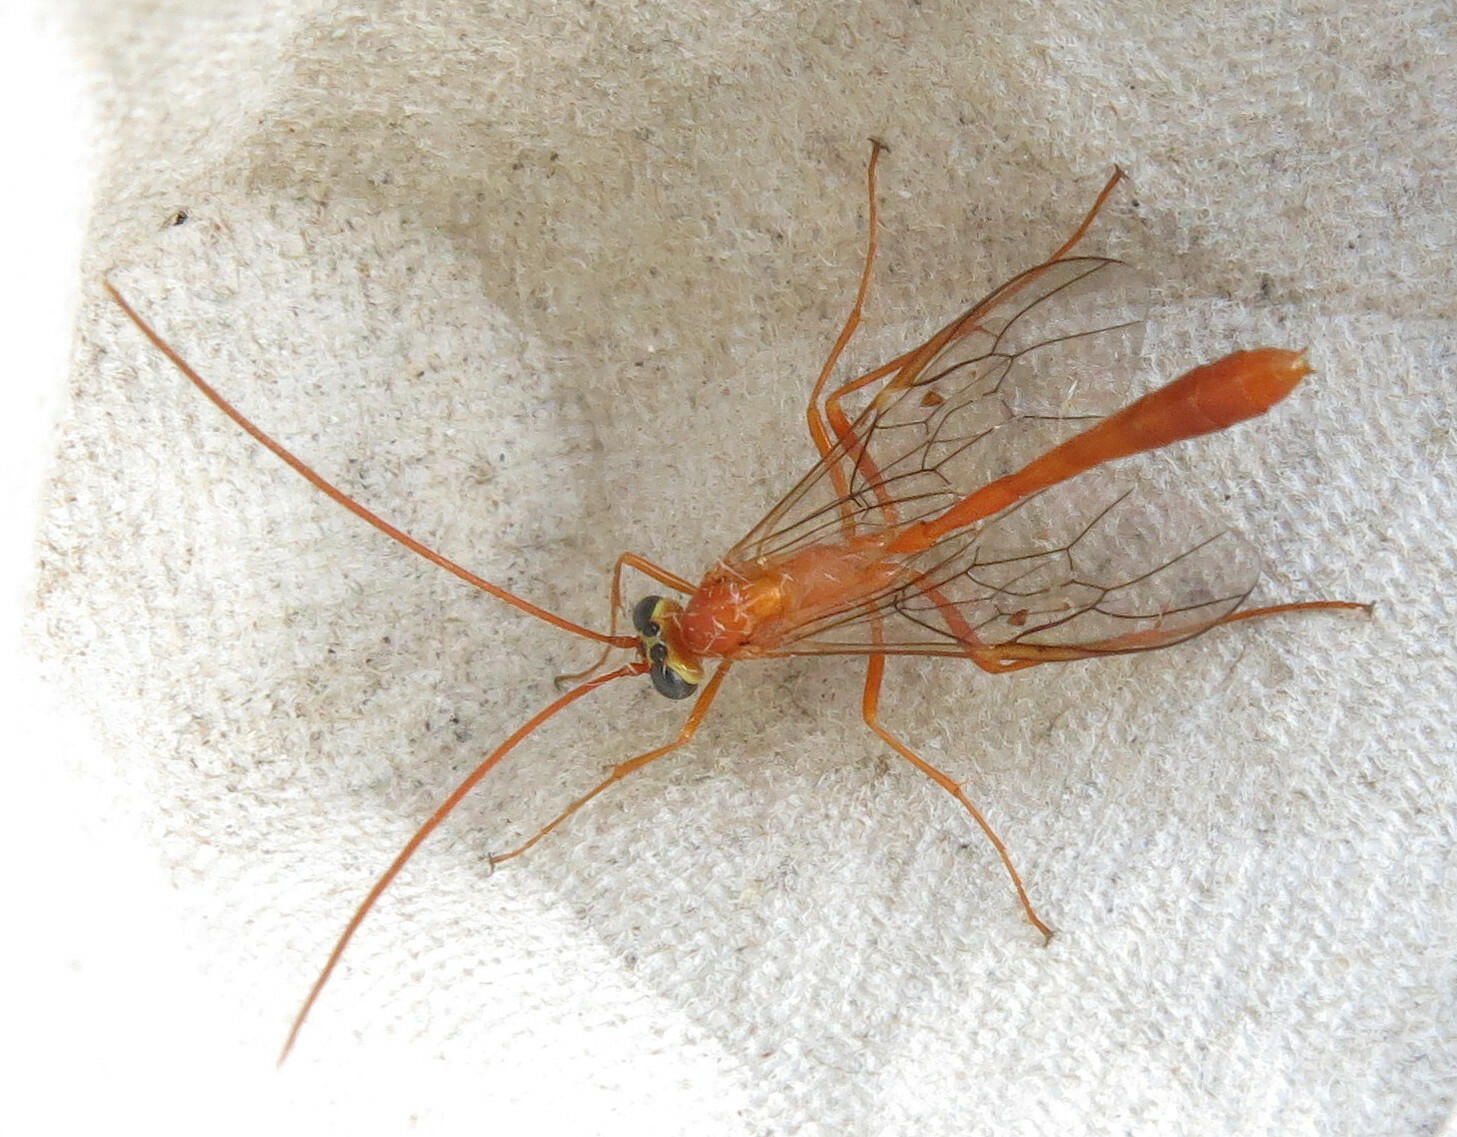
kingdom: Animalia
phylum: Arthropoda
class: Insecta
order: Hymenoptera
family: Ichneumonidae
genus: Enicospilus
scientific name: Enicospilus cerebrator
